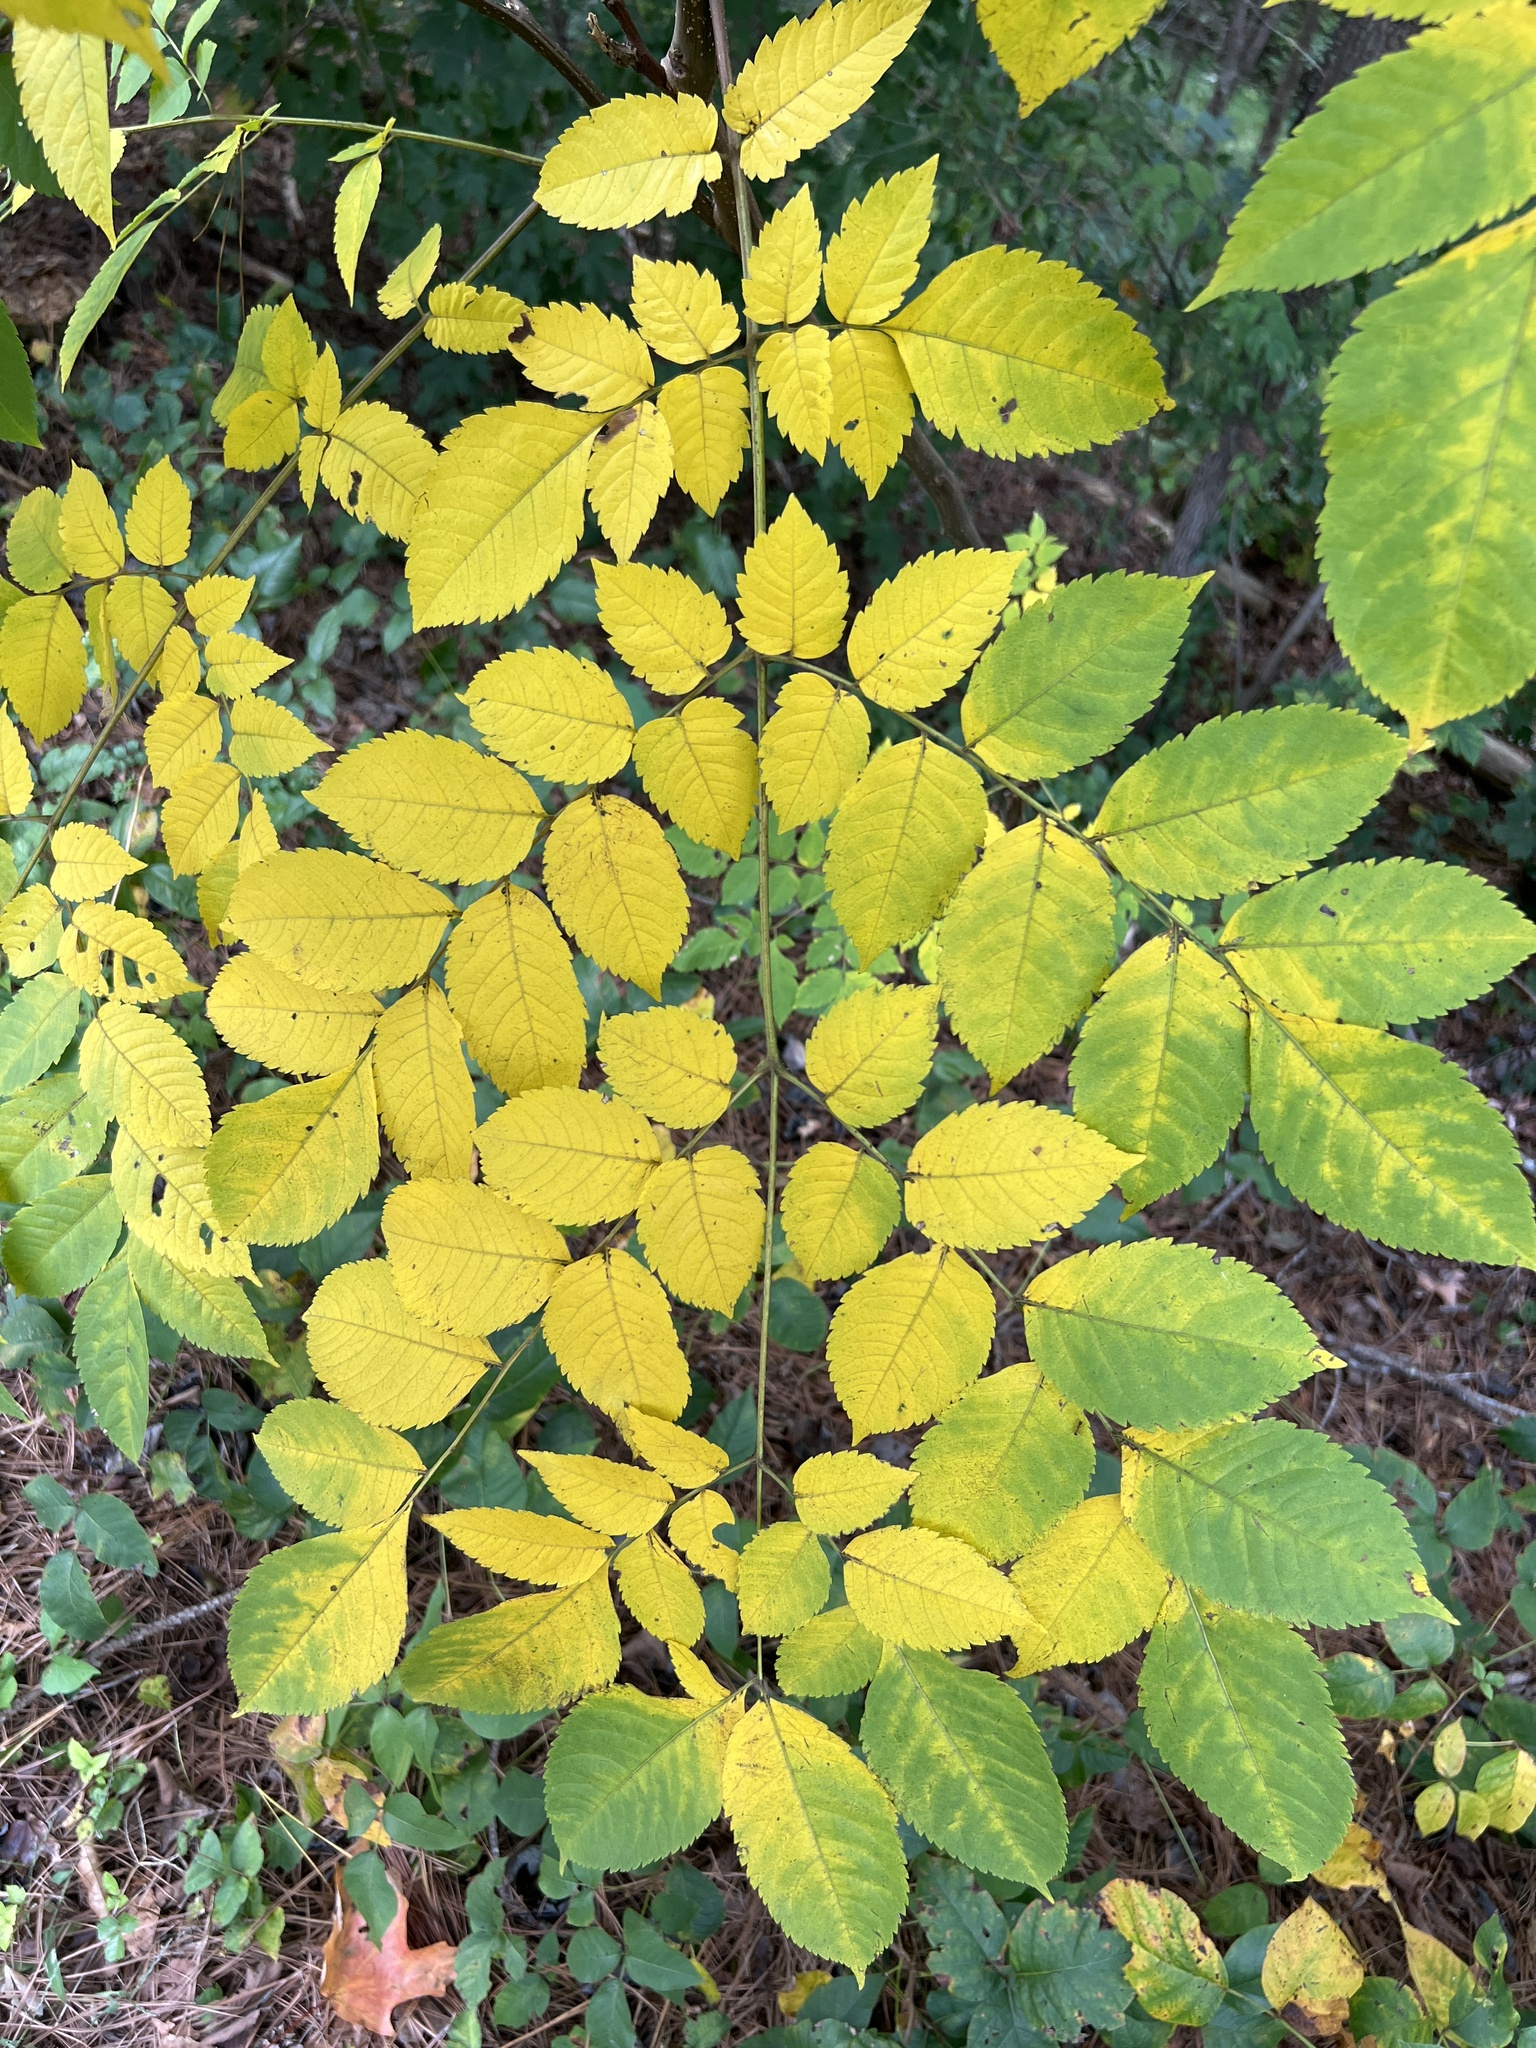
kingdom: Plantae
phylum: Tracheophyta
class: Magnoliopsida
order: Fabales
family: Fabaceae
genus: Gymnocladus
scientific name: Gymnocladus dioicus
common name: Kentucky coffee-tree
